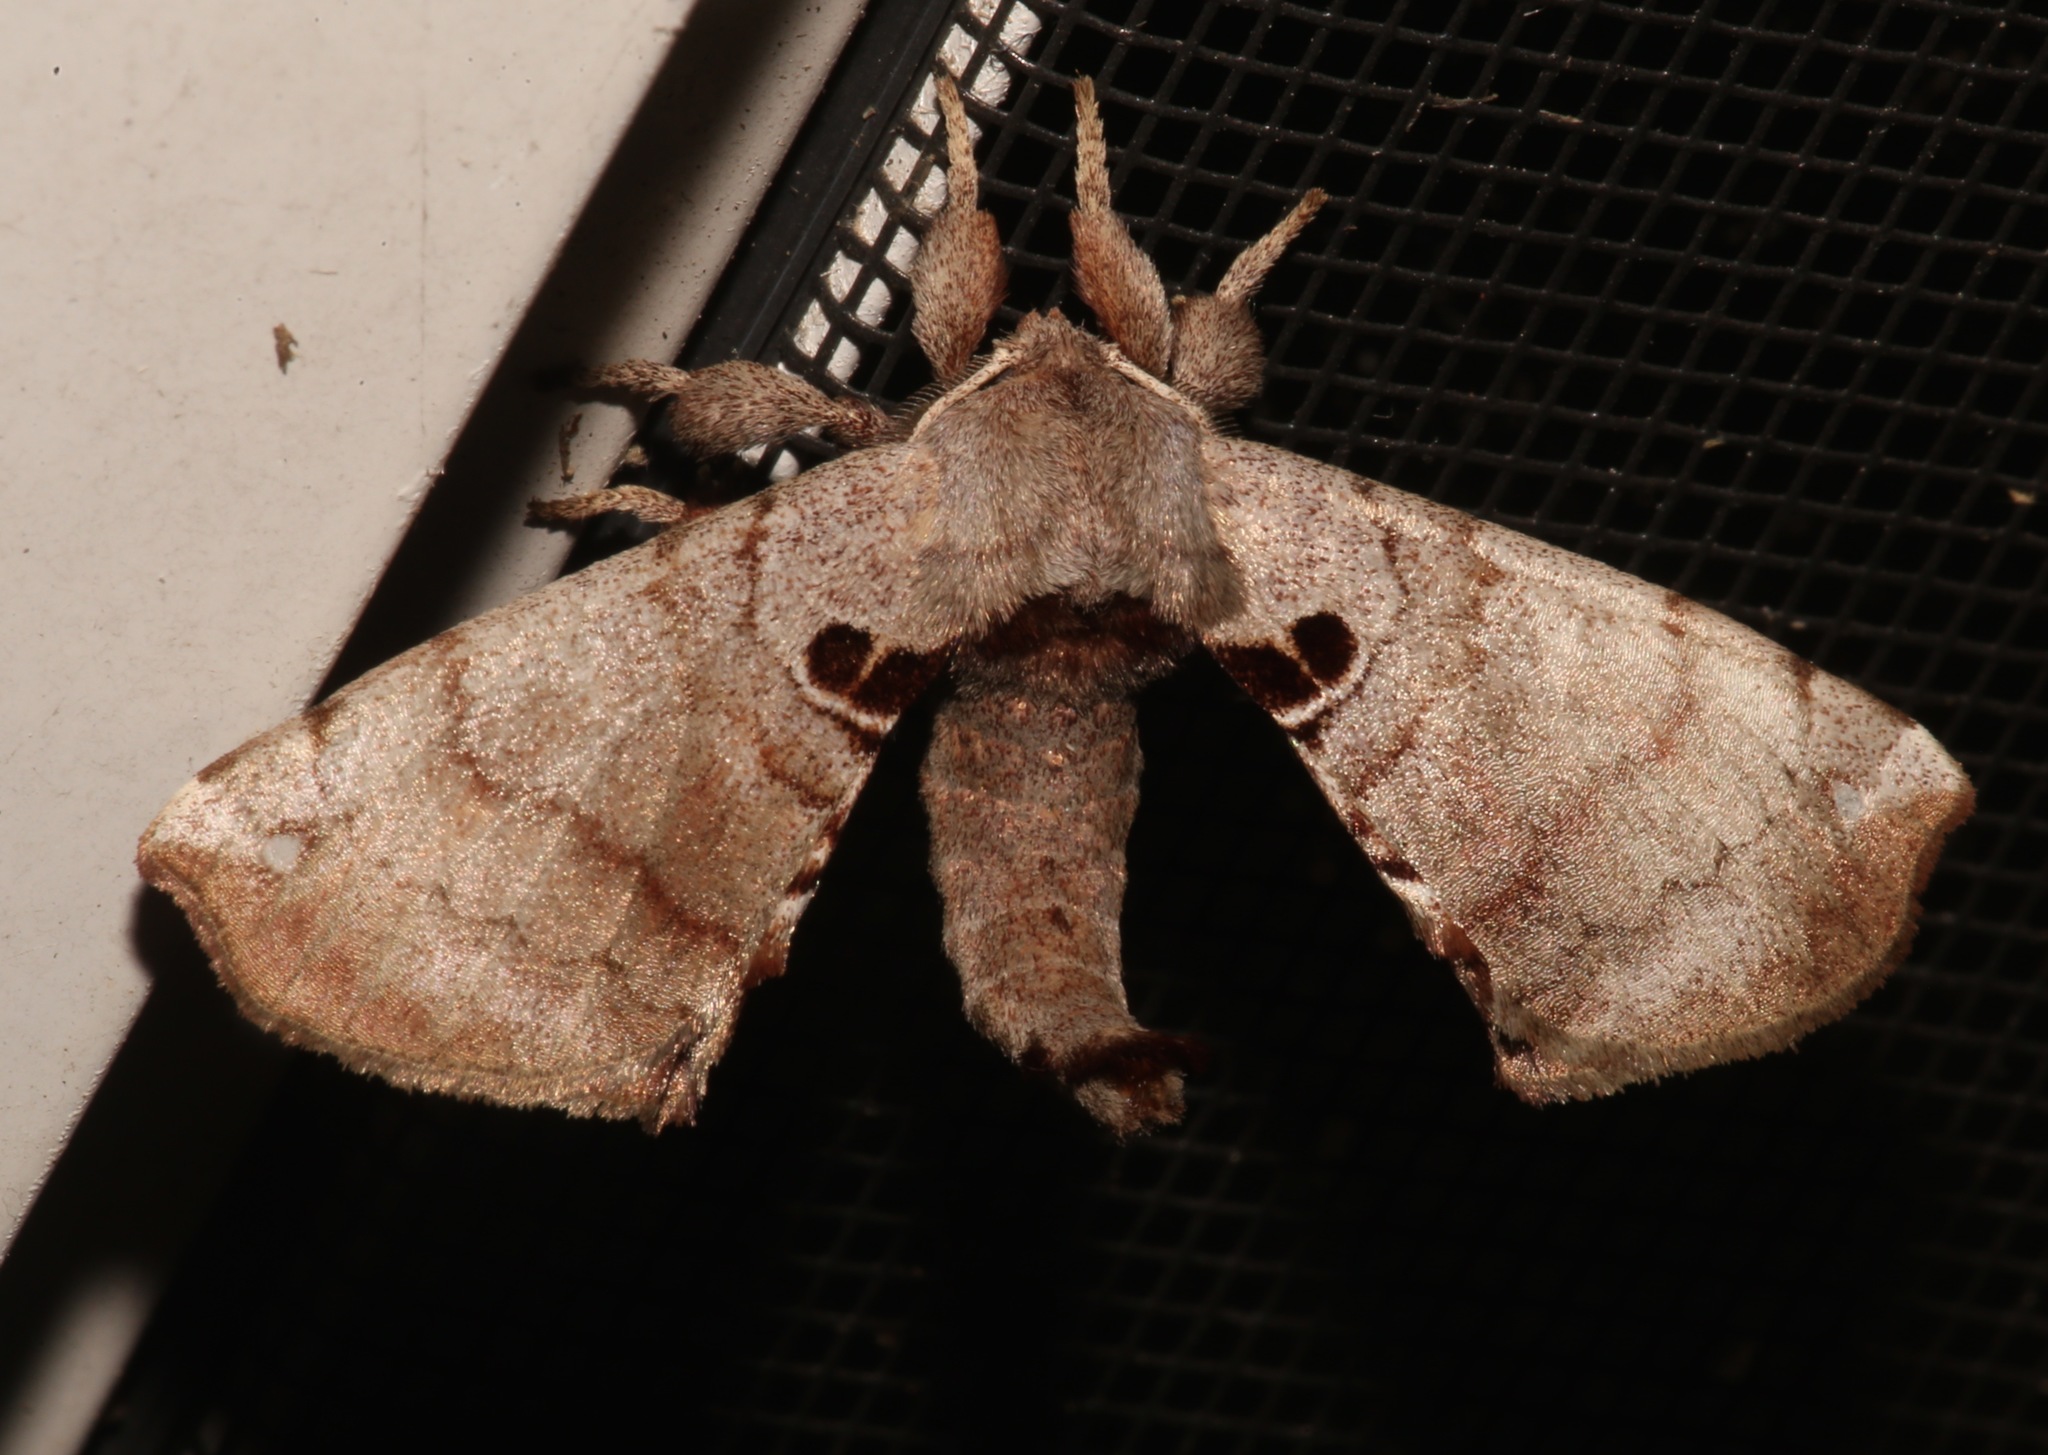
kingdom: Animalia
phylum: Arthropoda
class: Insecta
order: Lepidoptera
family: Apatelodidae
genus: Hygrochroa
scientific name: Hygrochroa Apatelodes torrefacta
